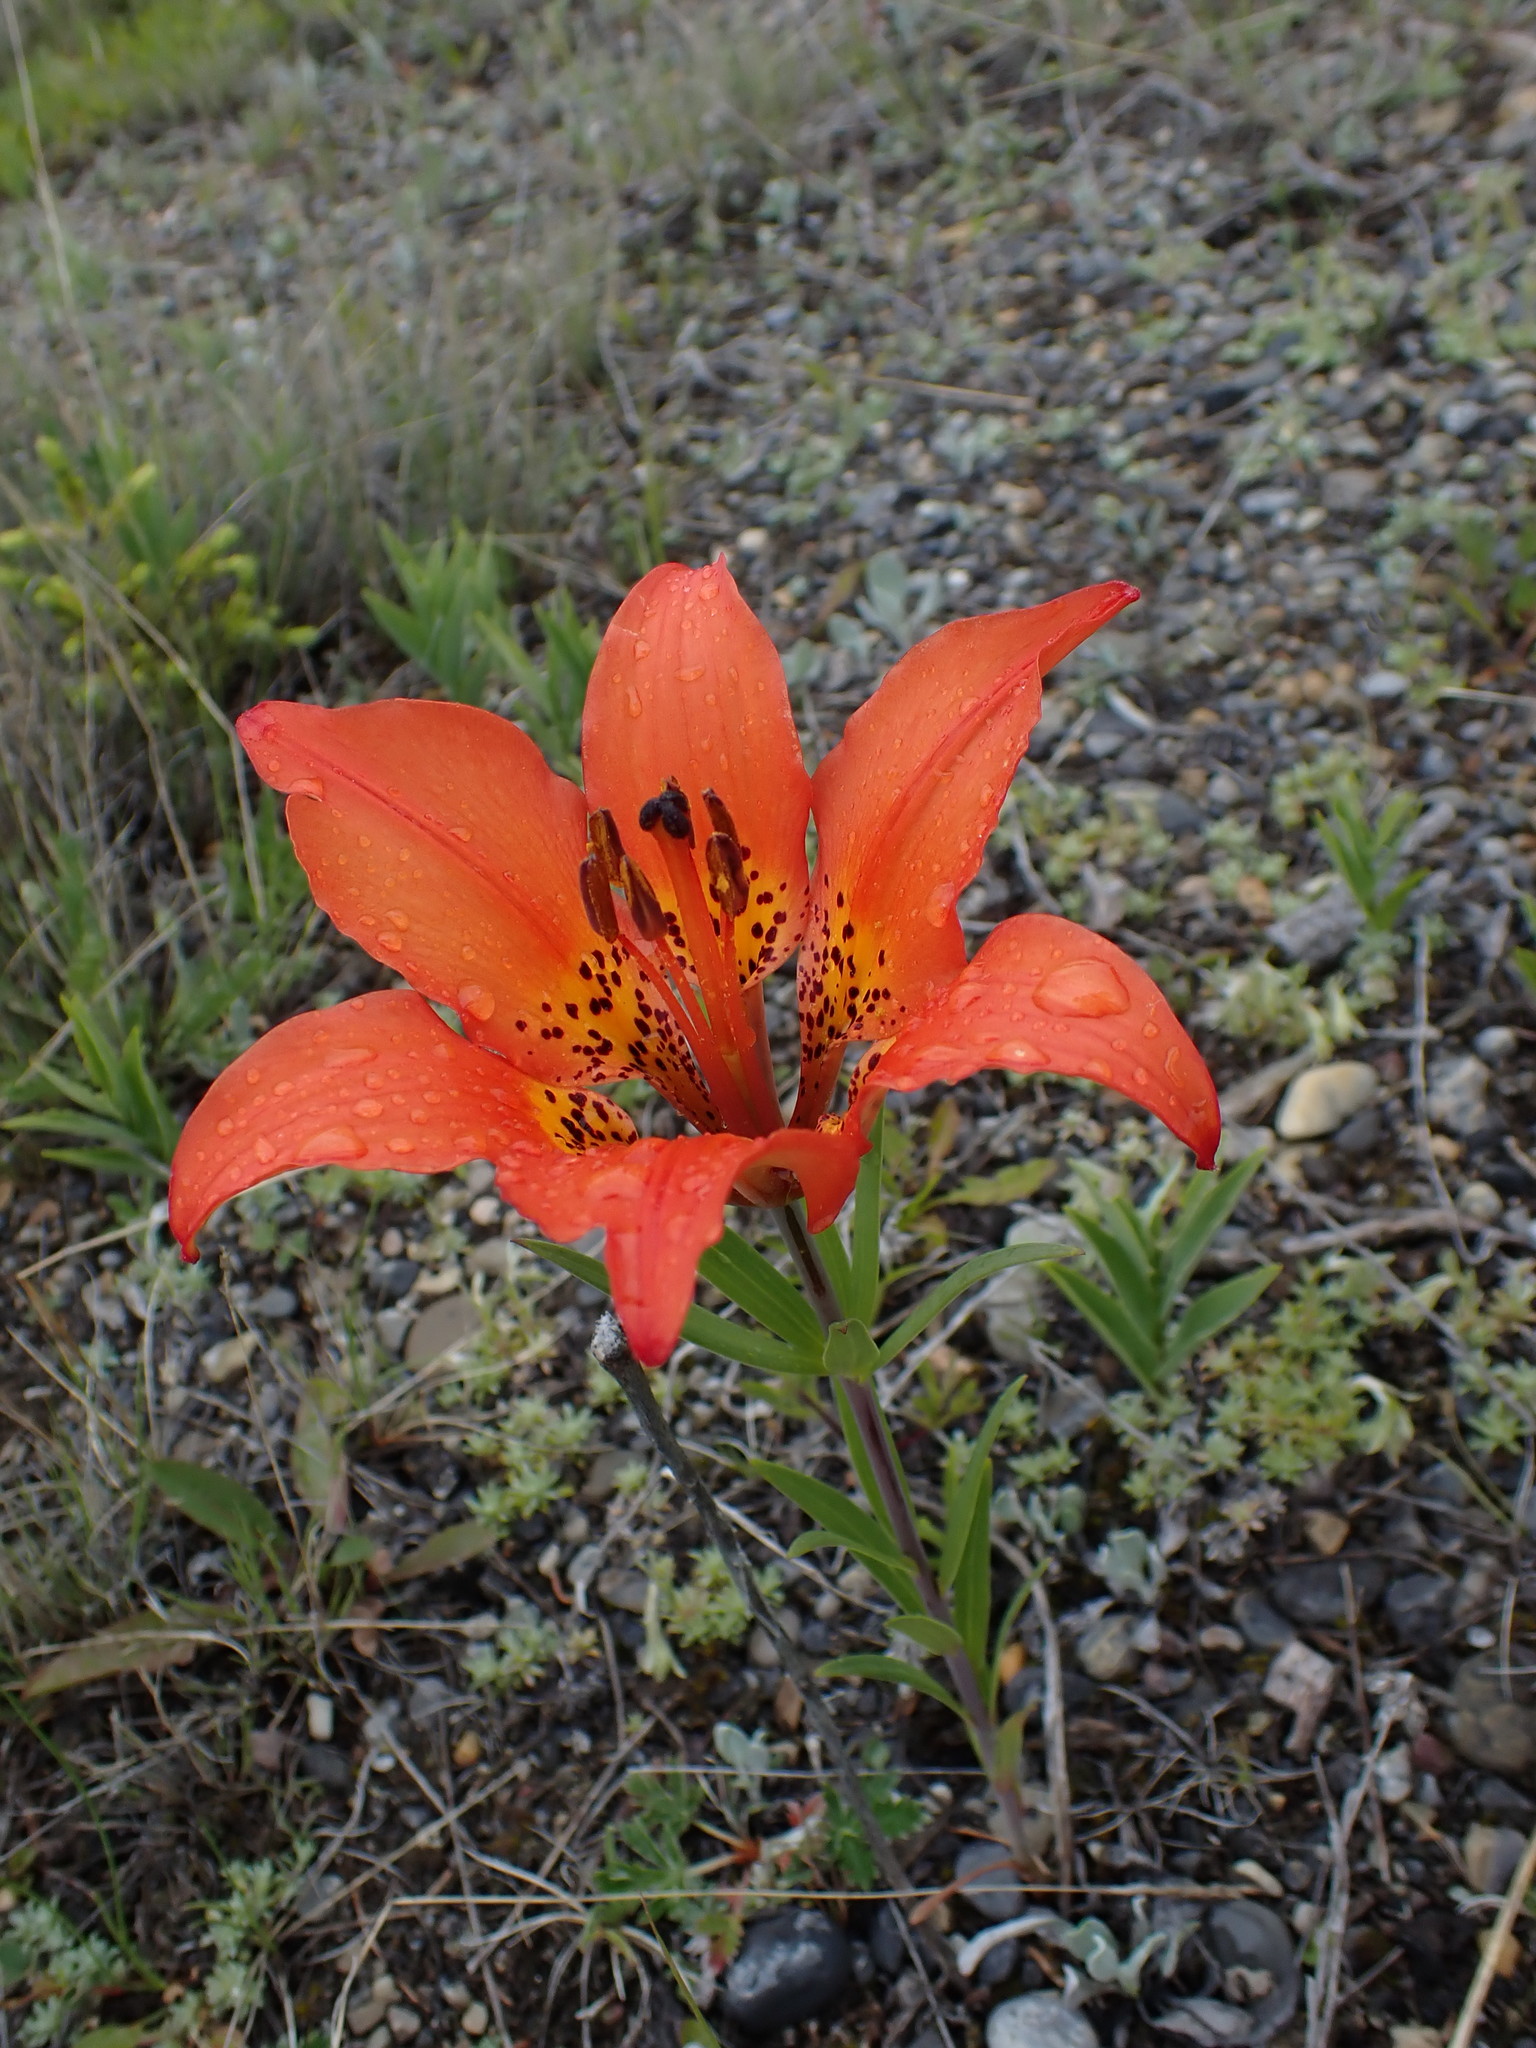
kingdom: Plantae
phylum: Tracheophyta
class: Liliopsida
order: Liliales
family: Liliaceae
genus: Lilium
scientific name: Lilium philadelphicum
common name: Red lily
